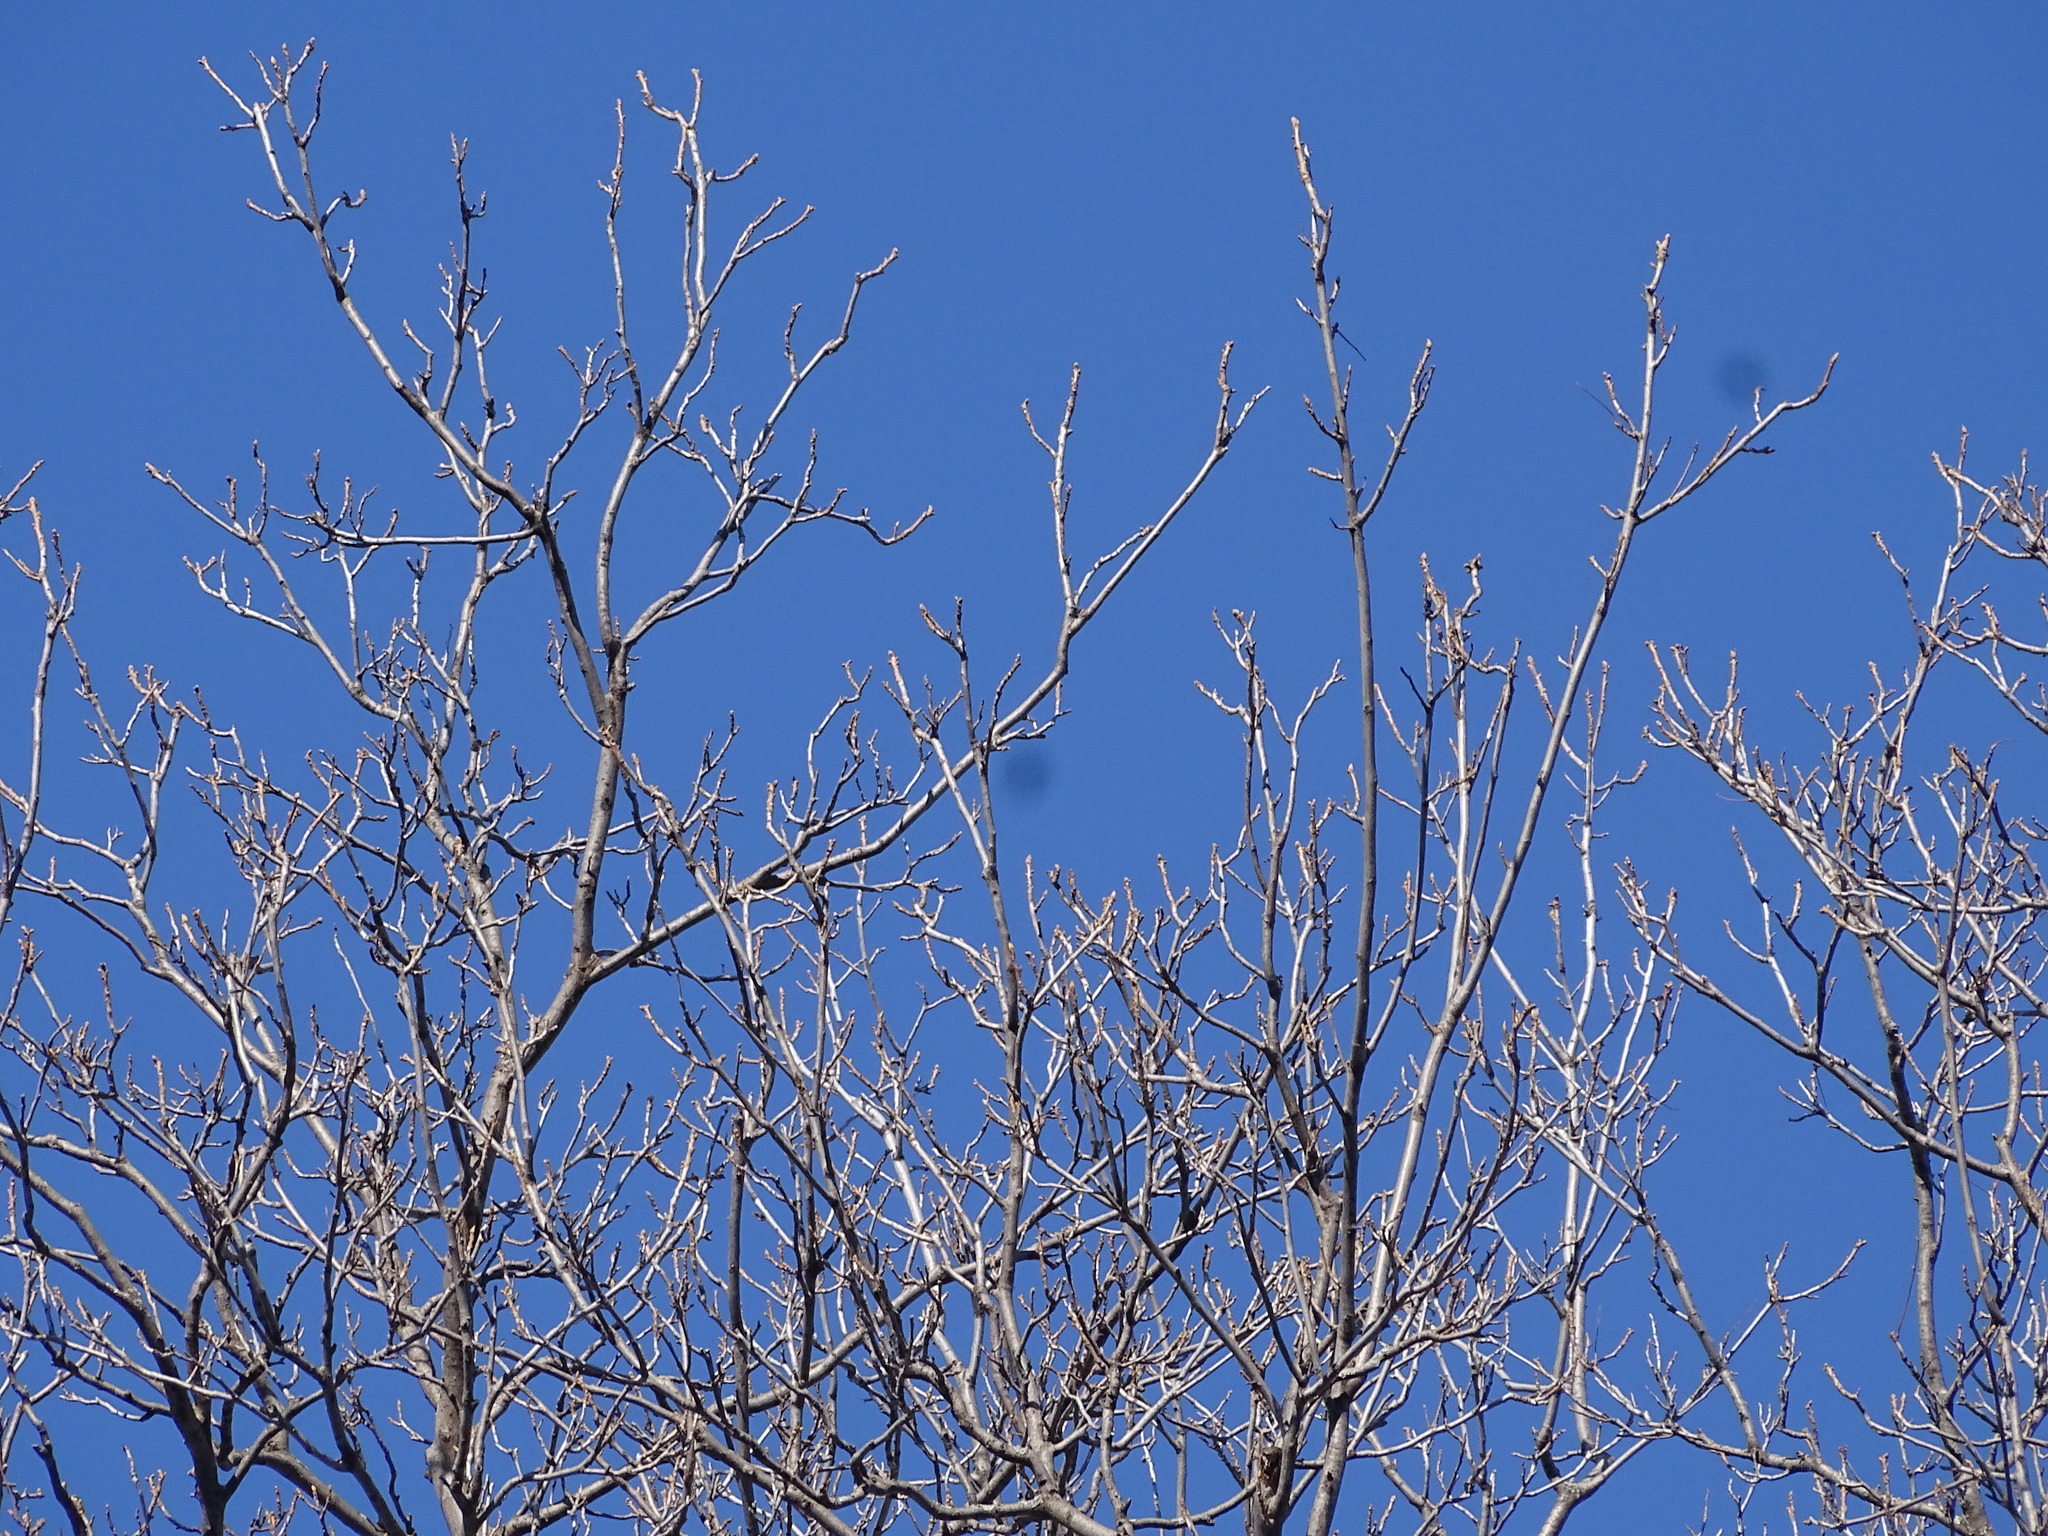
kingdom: Plantae
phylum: Tracheophyta
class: Magnoliopsida
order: Fagales
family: Juglandaceae
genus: Carya
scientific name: Carya cordiformis
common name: Bitternut hickory
